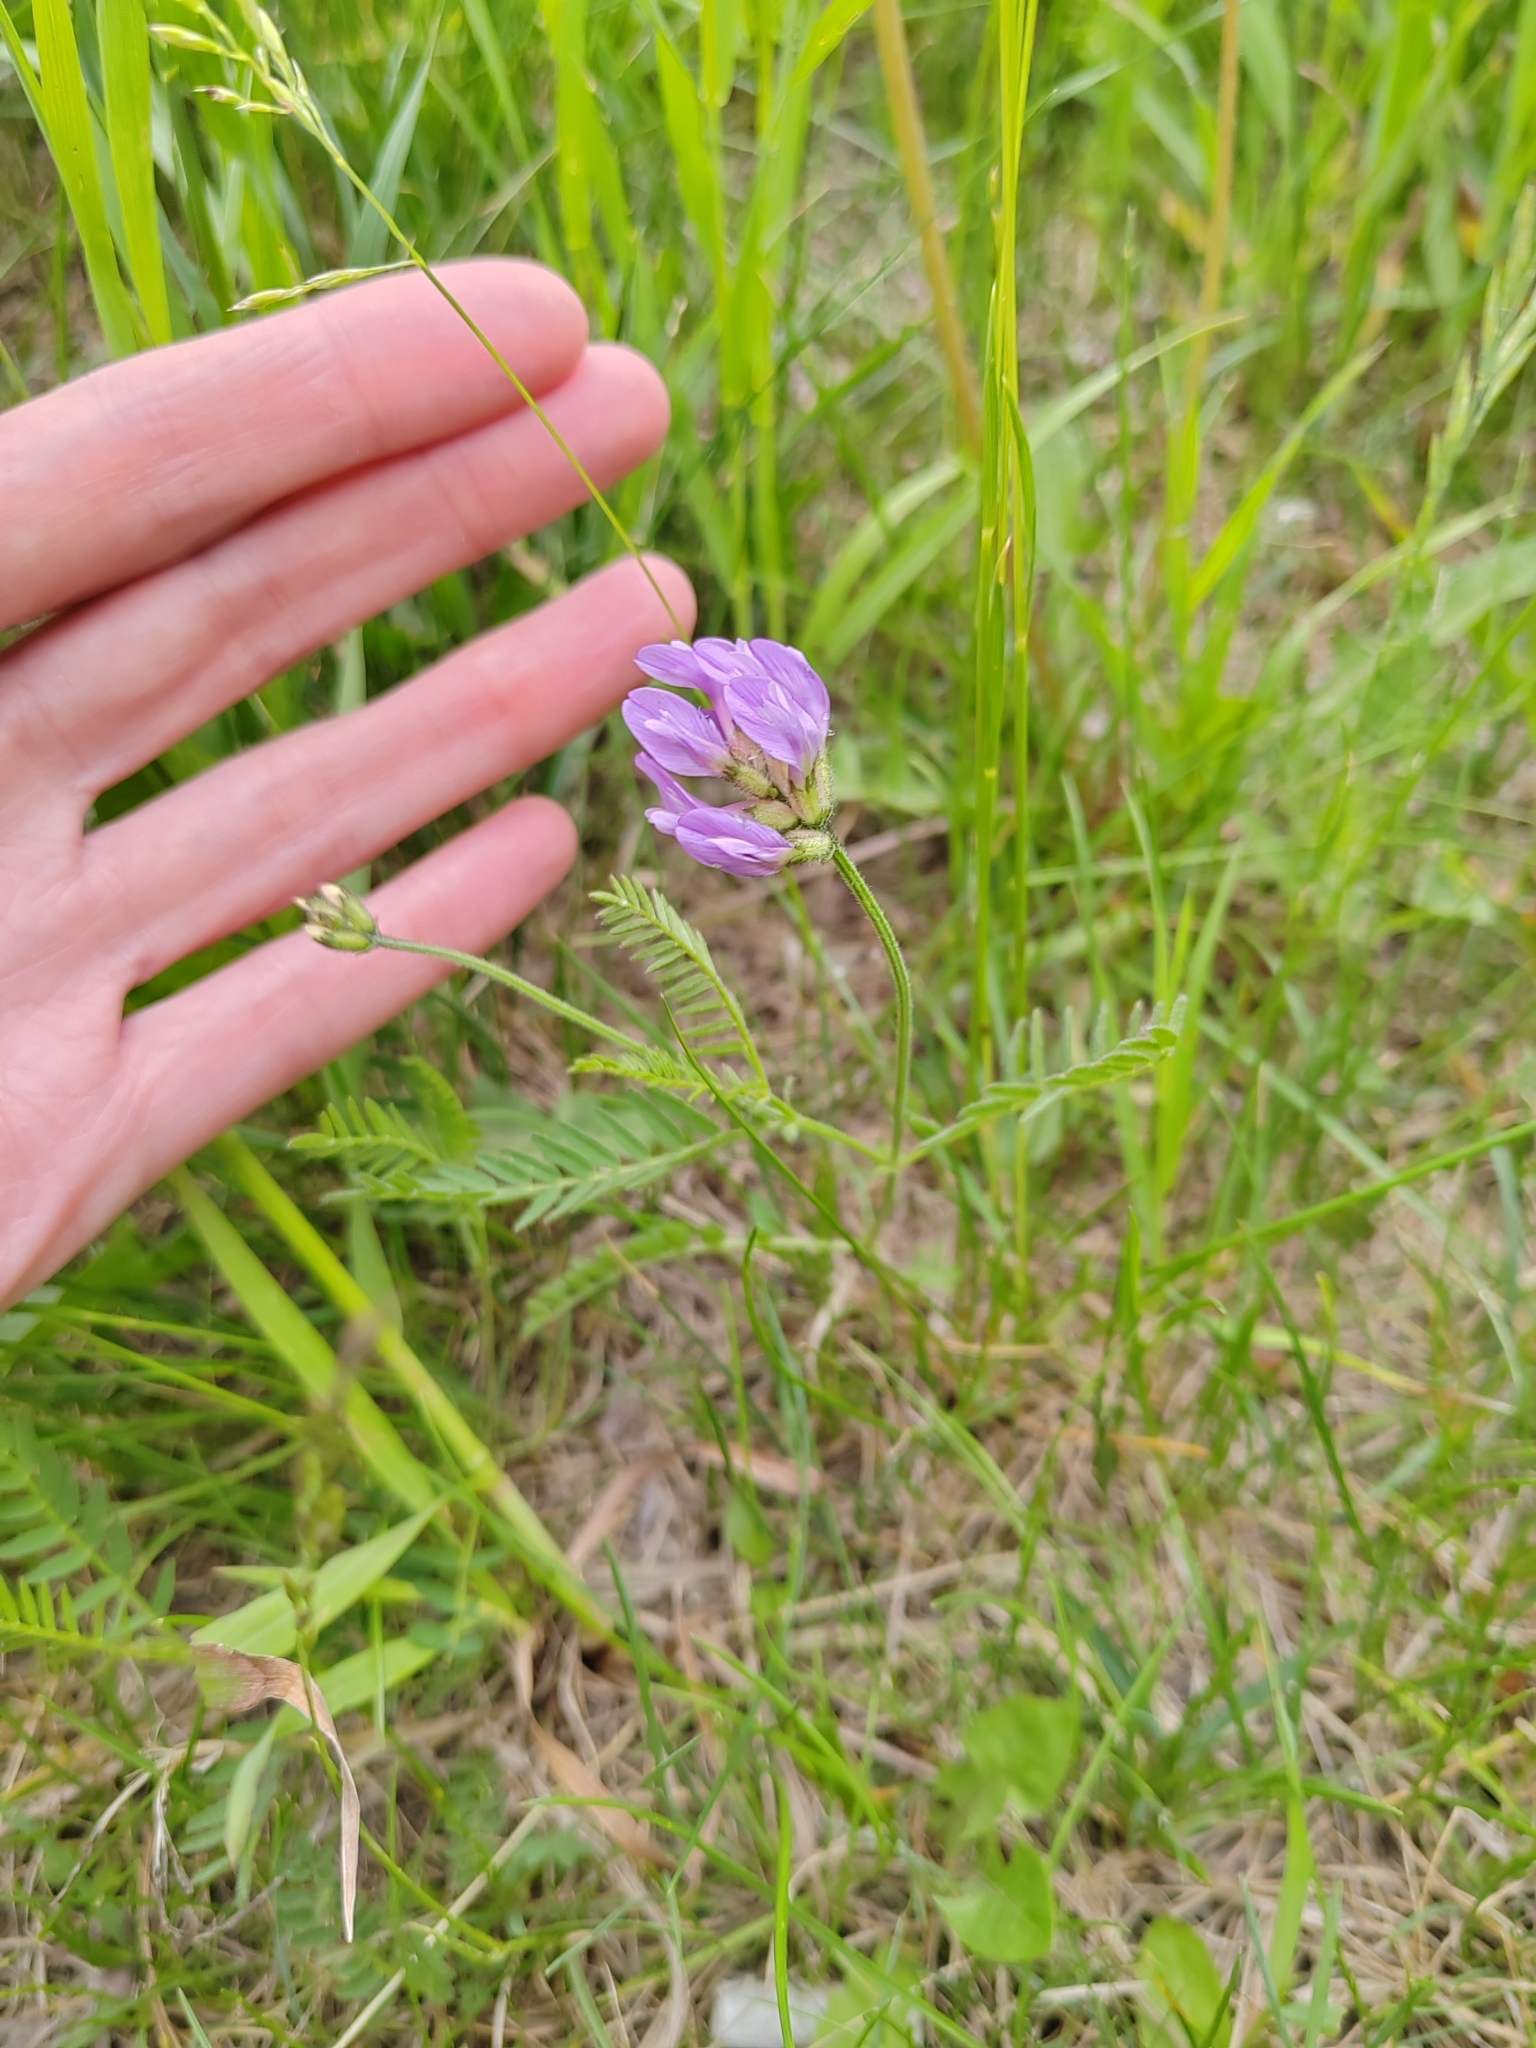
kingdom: Plantae
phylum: Tracheophyta
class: Magnoliopsida
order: Fabales
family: Fabaceae
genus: Astragalus
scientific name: Astragalus danicus
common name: Purple milk-vetch
